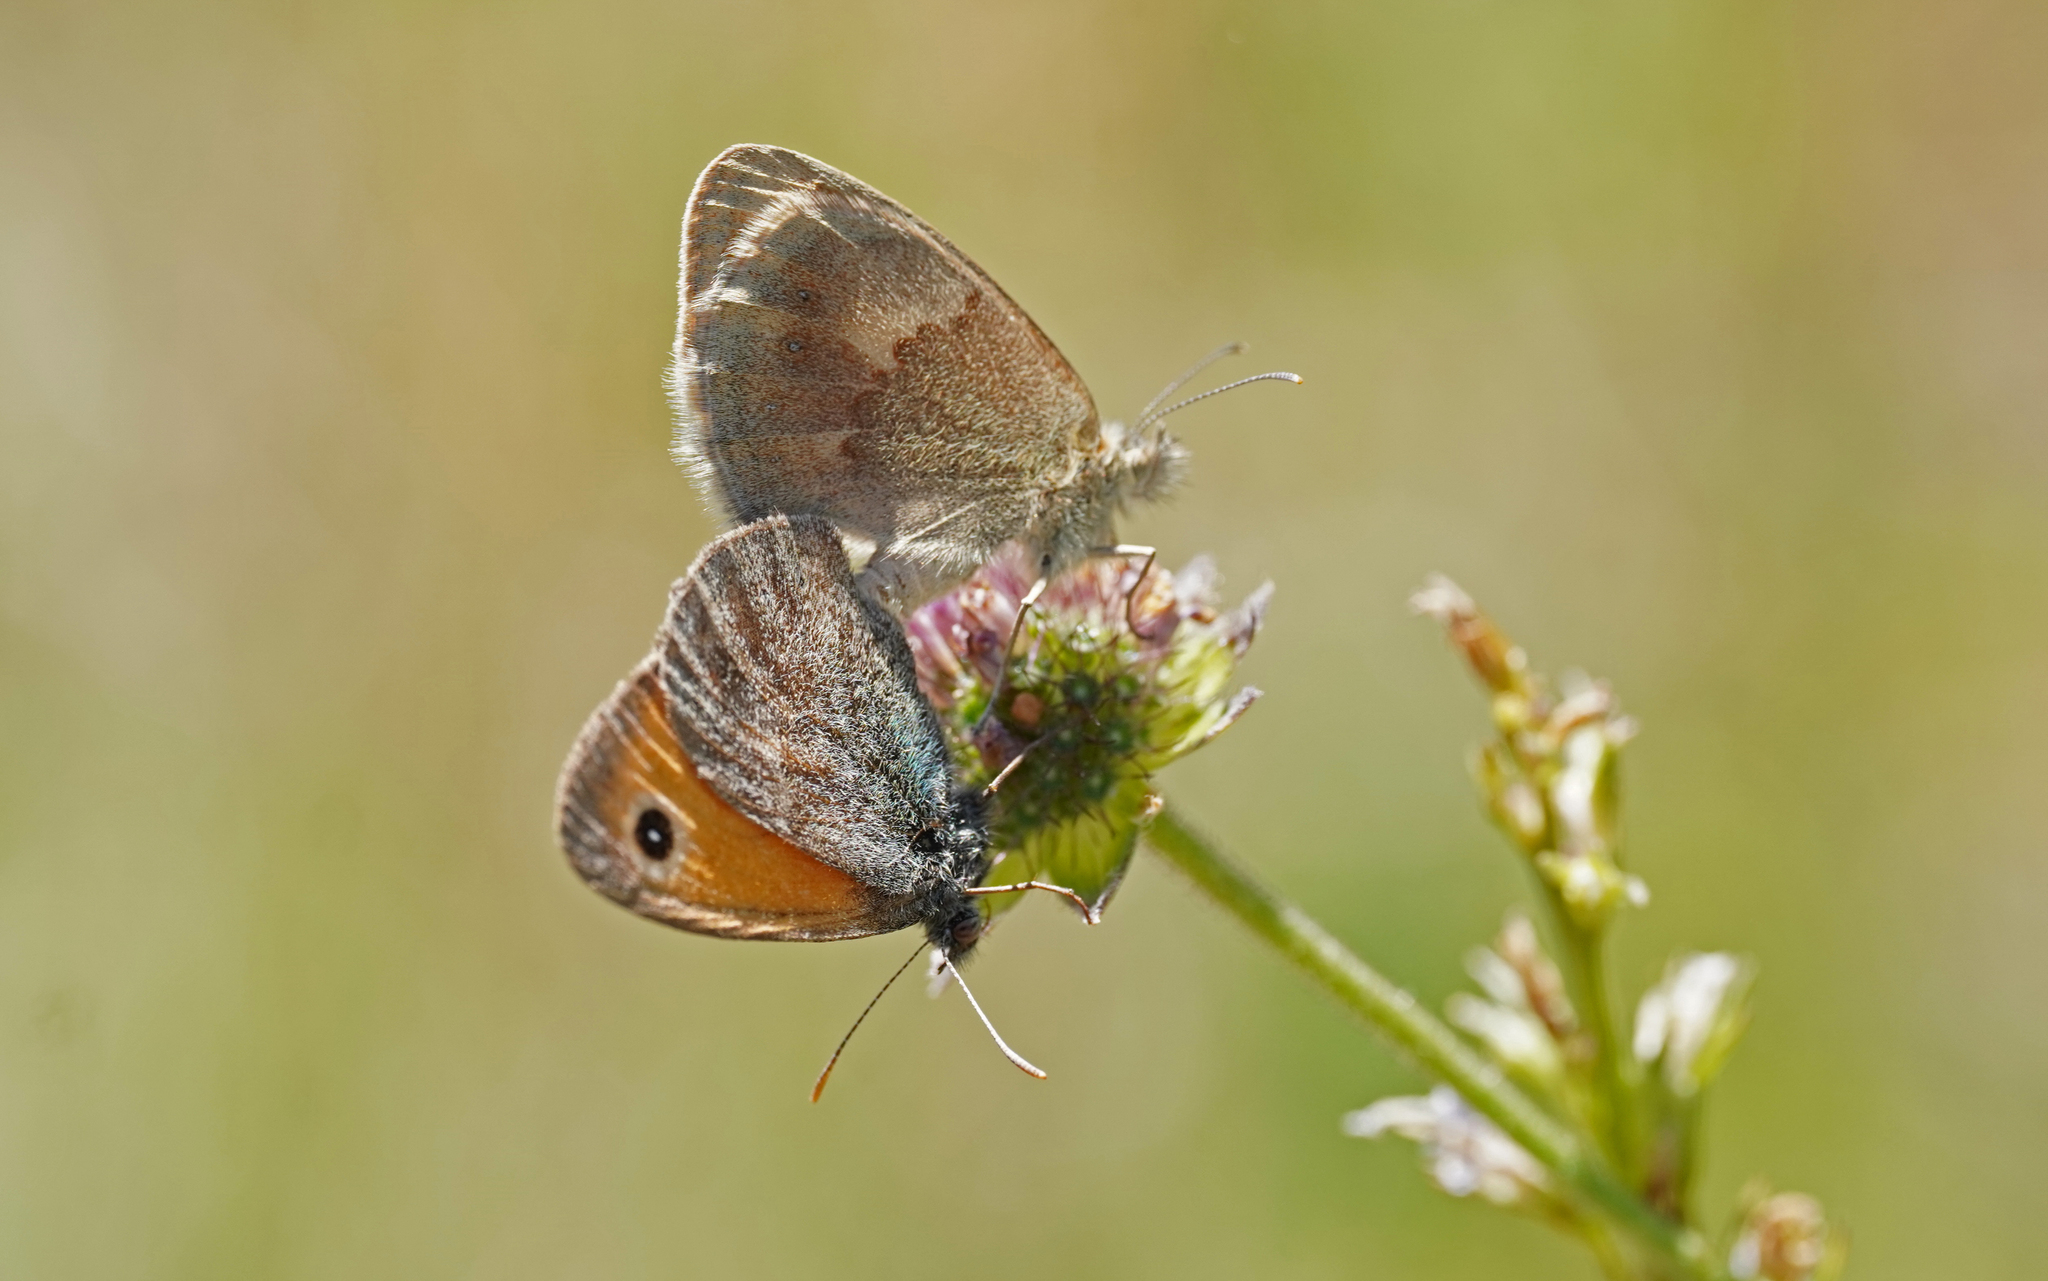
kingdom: Animalia
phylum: Arthropoda
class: Insecta
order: Lepidoptera
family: Nymphalidae
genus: Coenonympha
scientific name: Coenonympha pamphilus
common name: Small heath
